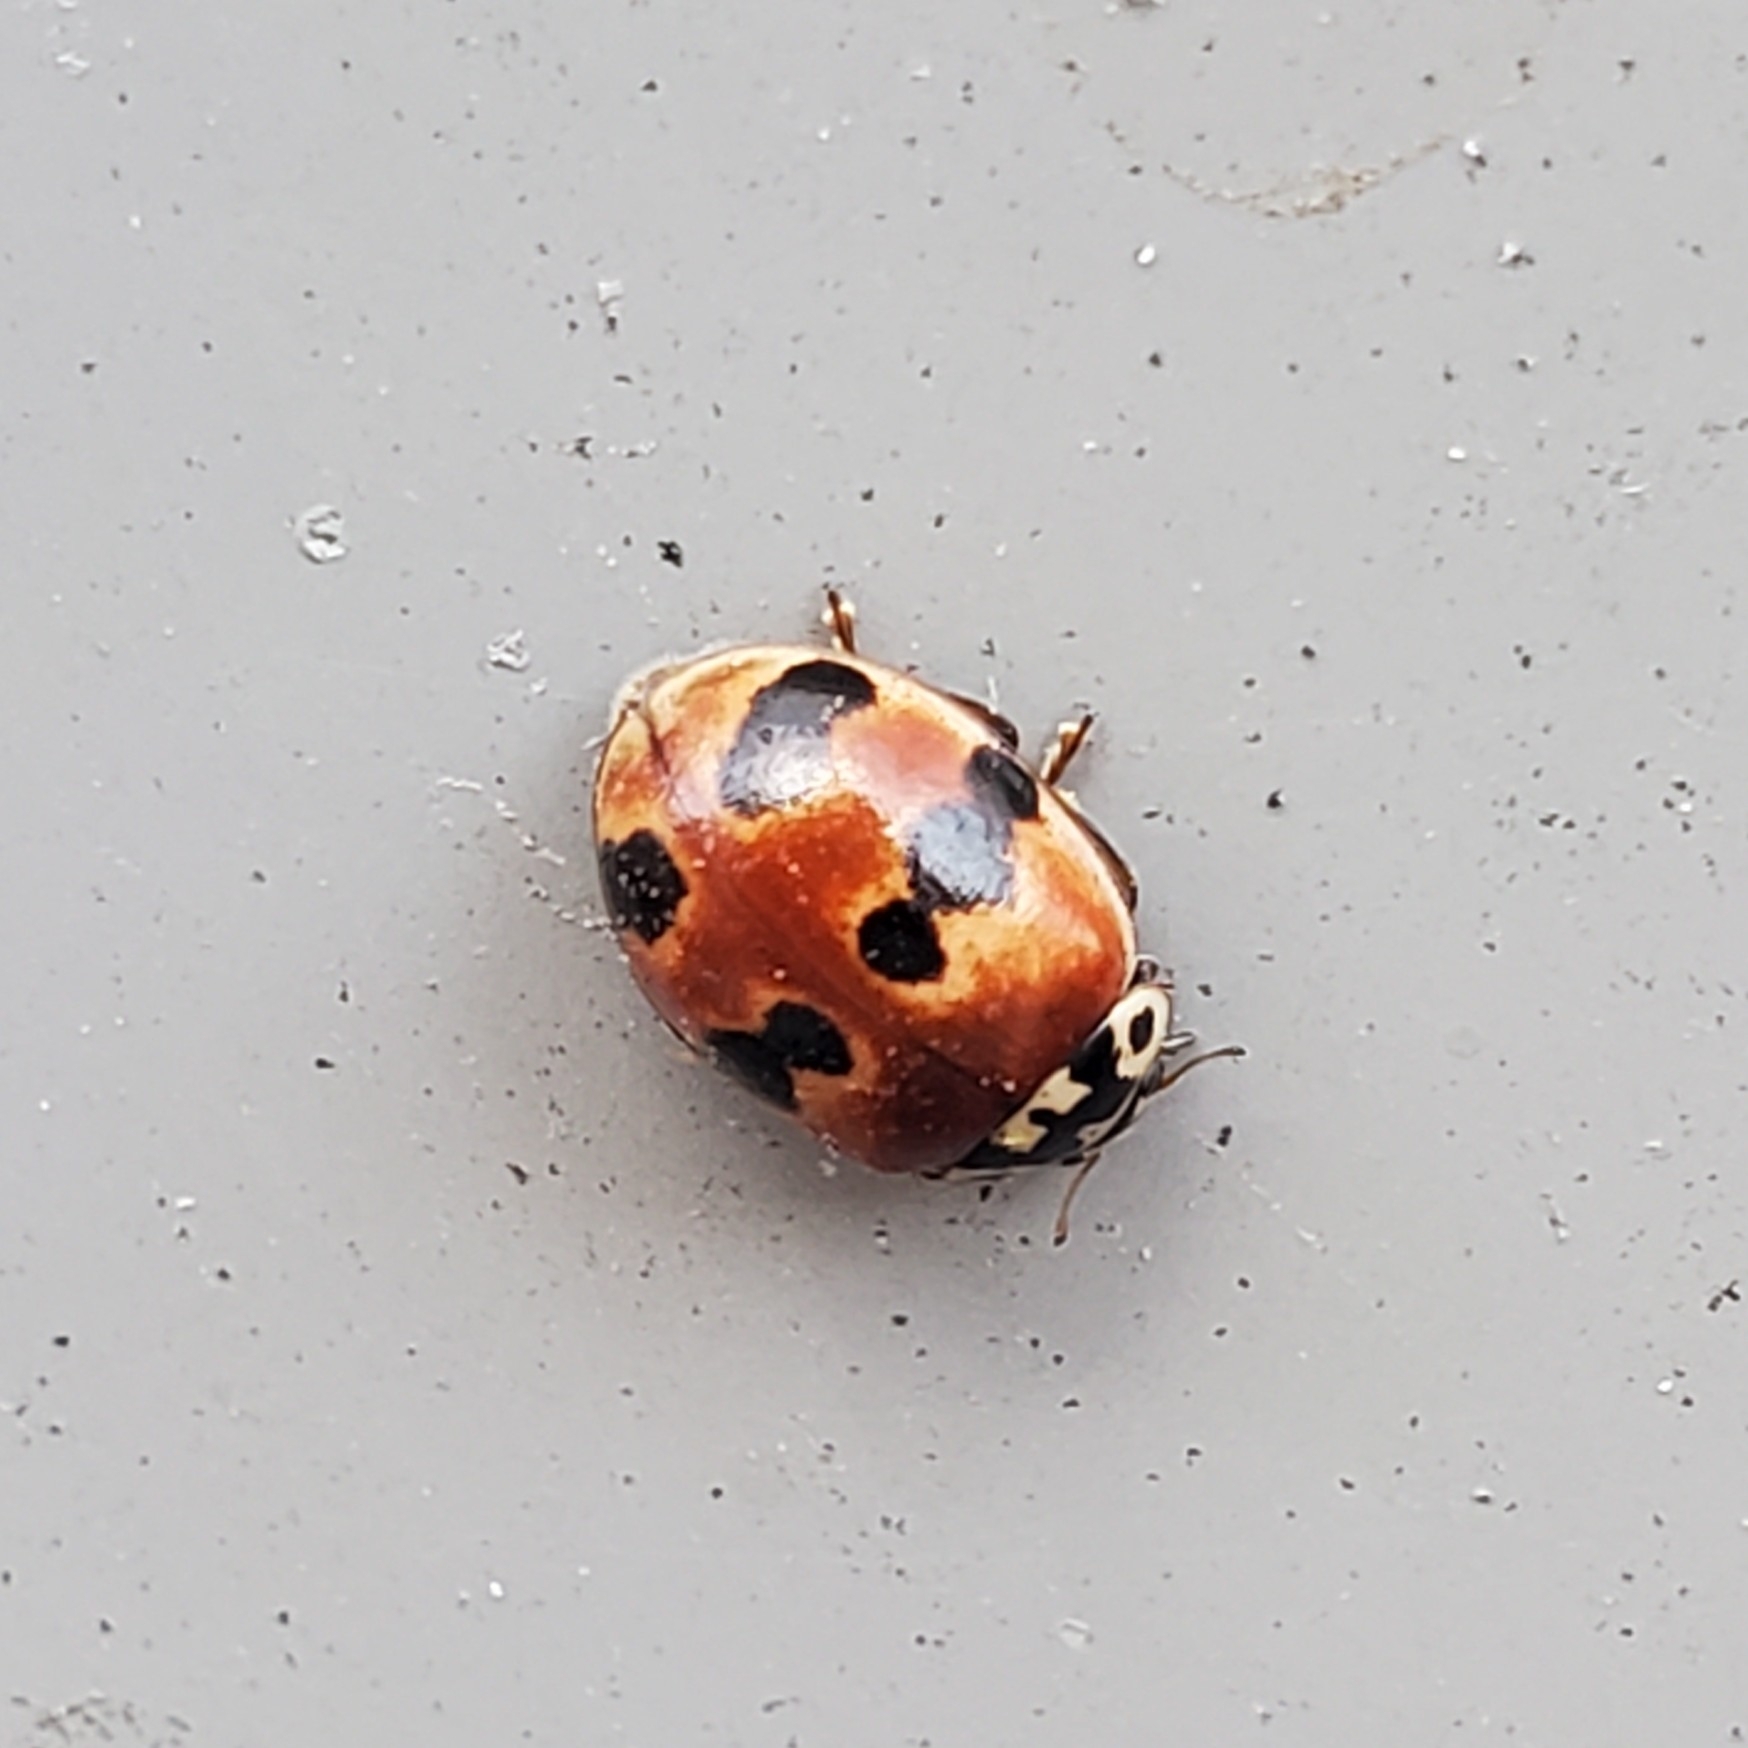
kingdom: Animalia
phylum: Arthropoda
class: Insecta
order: Coleoptera
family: Coccinellidae
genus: Adalia
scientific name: Adalia bipunctata
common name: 2-spot ladybird
